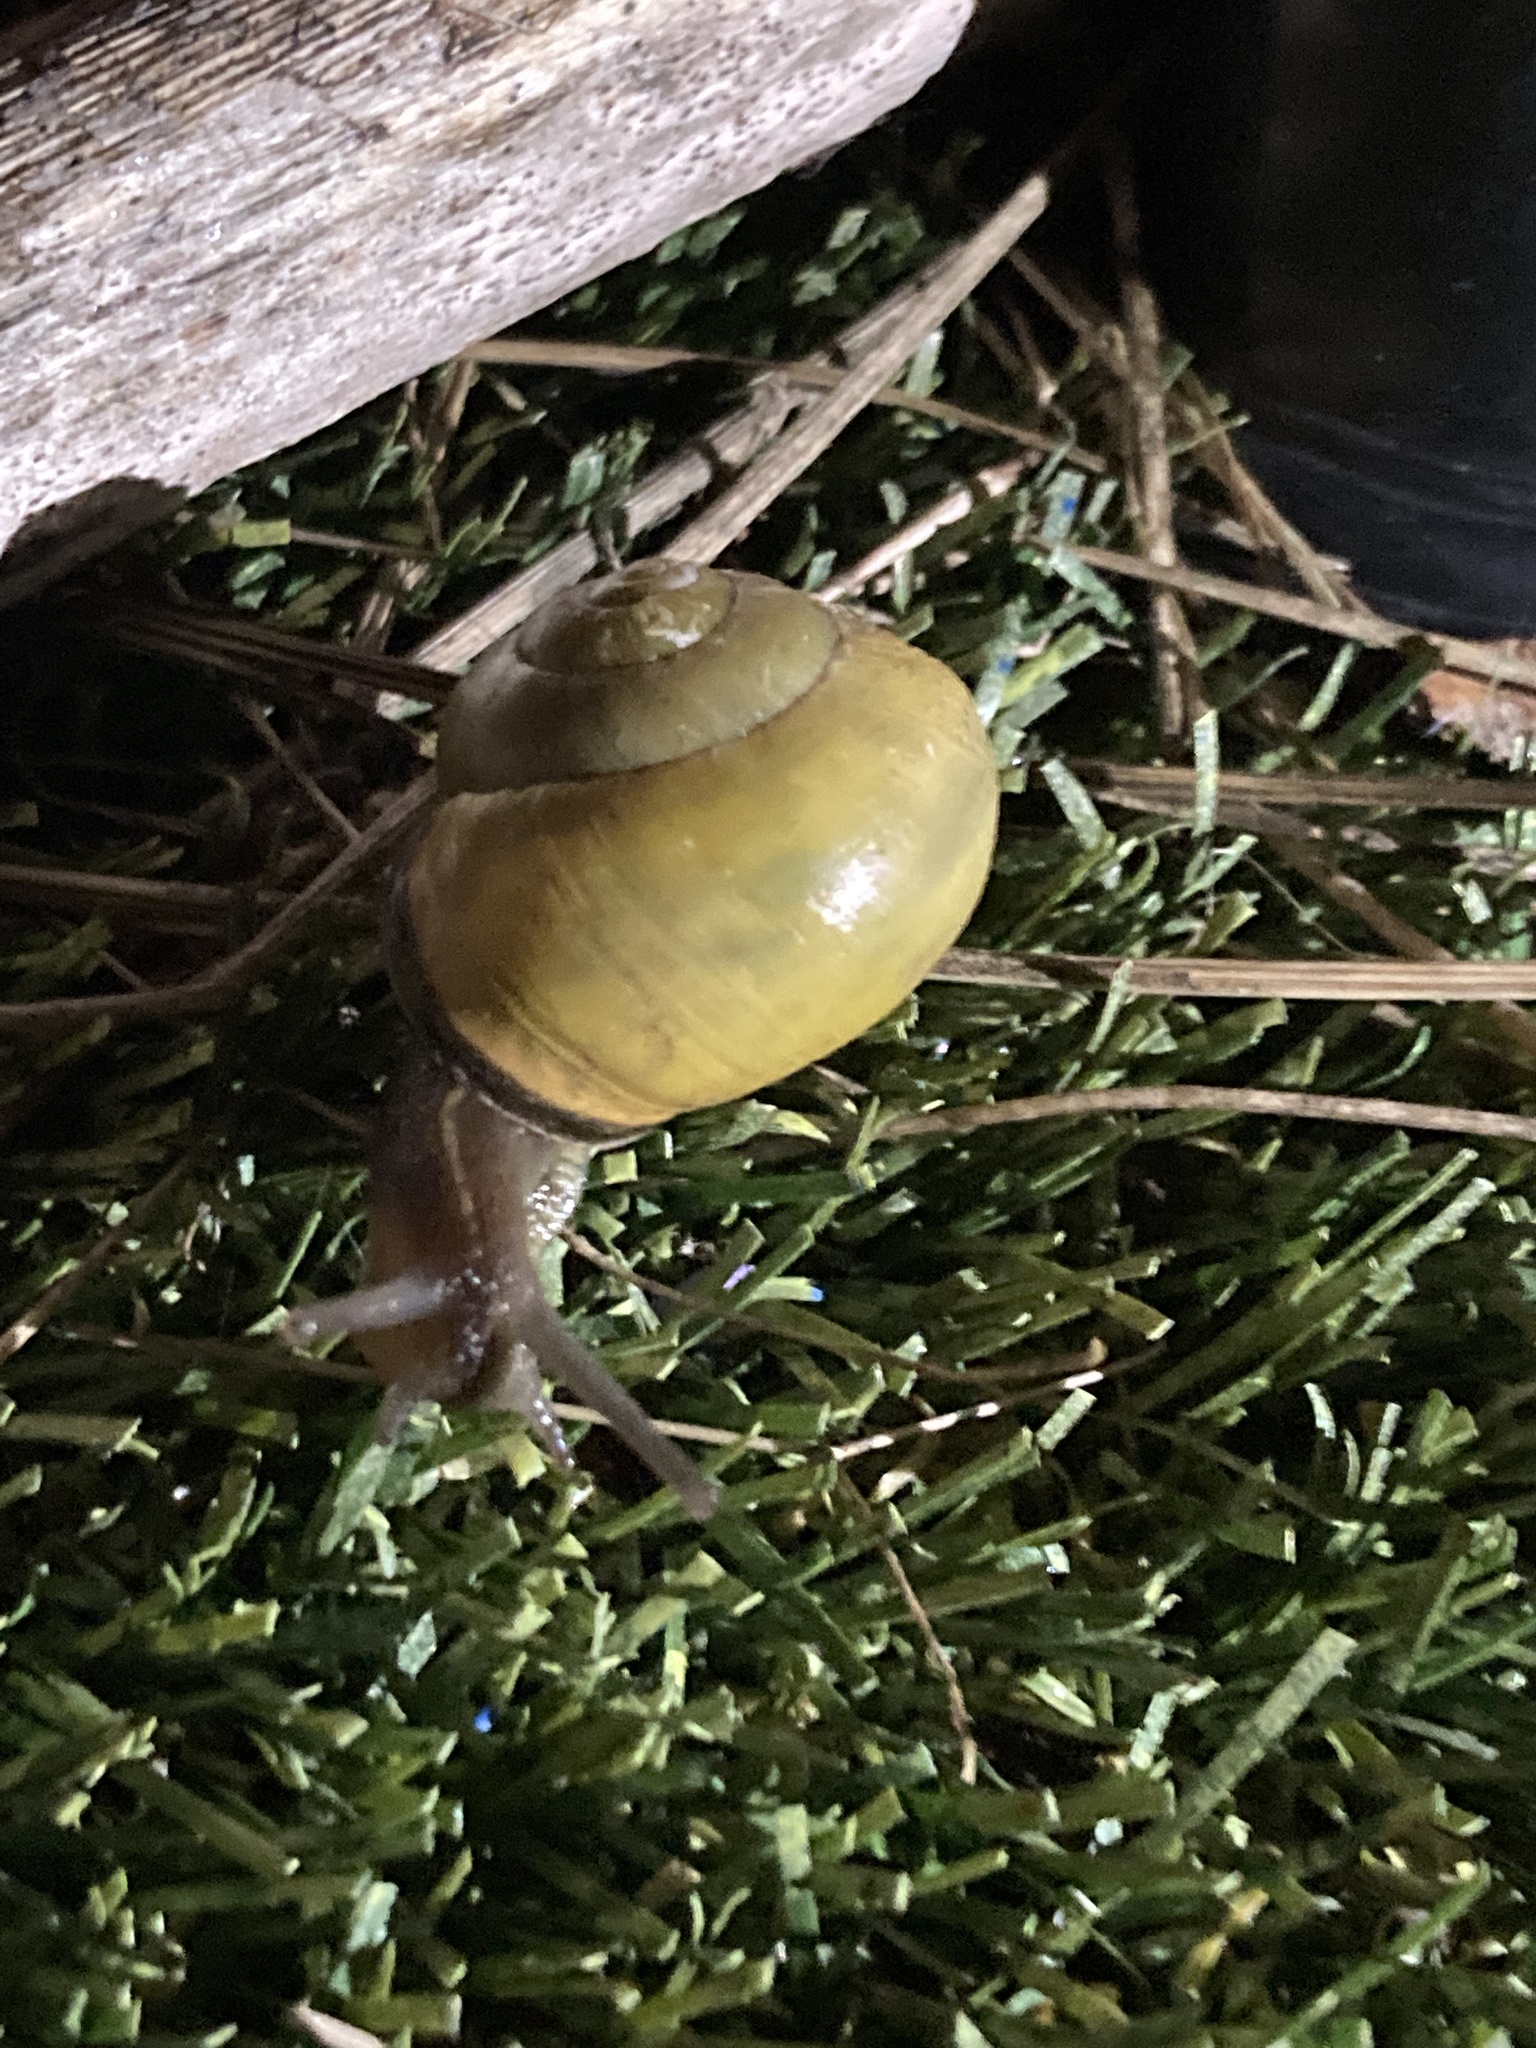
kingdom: Animalia
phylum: Mollusca
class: Gastropoda
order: Stylommatophora
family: Helicidae
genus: Cepaea
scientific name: Cepaea nemoralis
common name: Grovesnail
